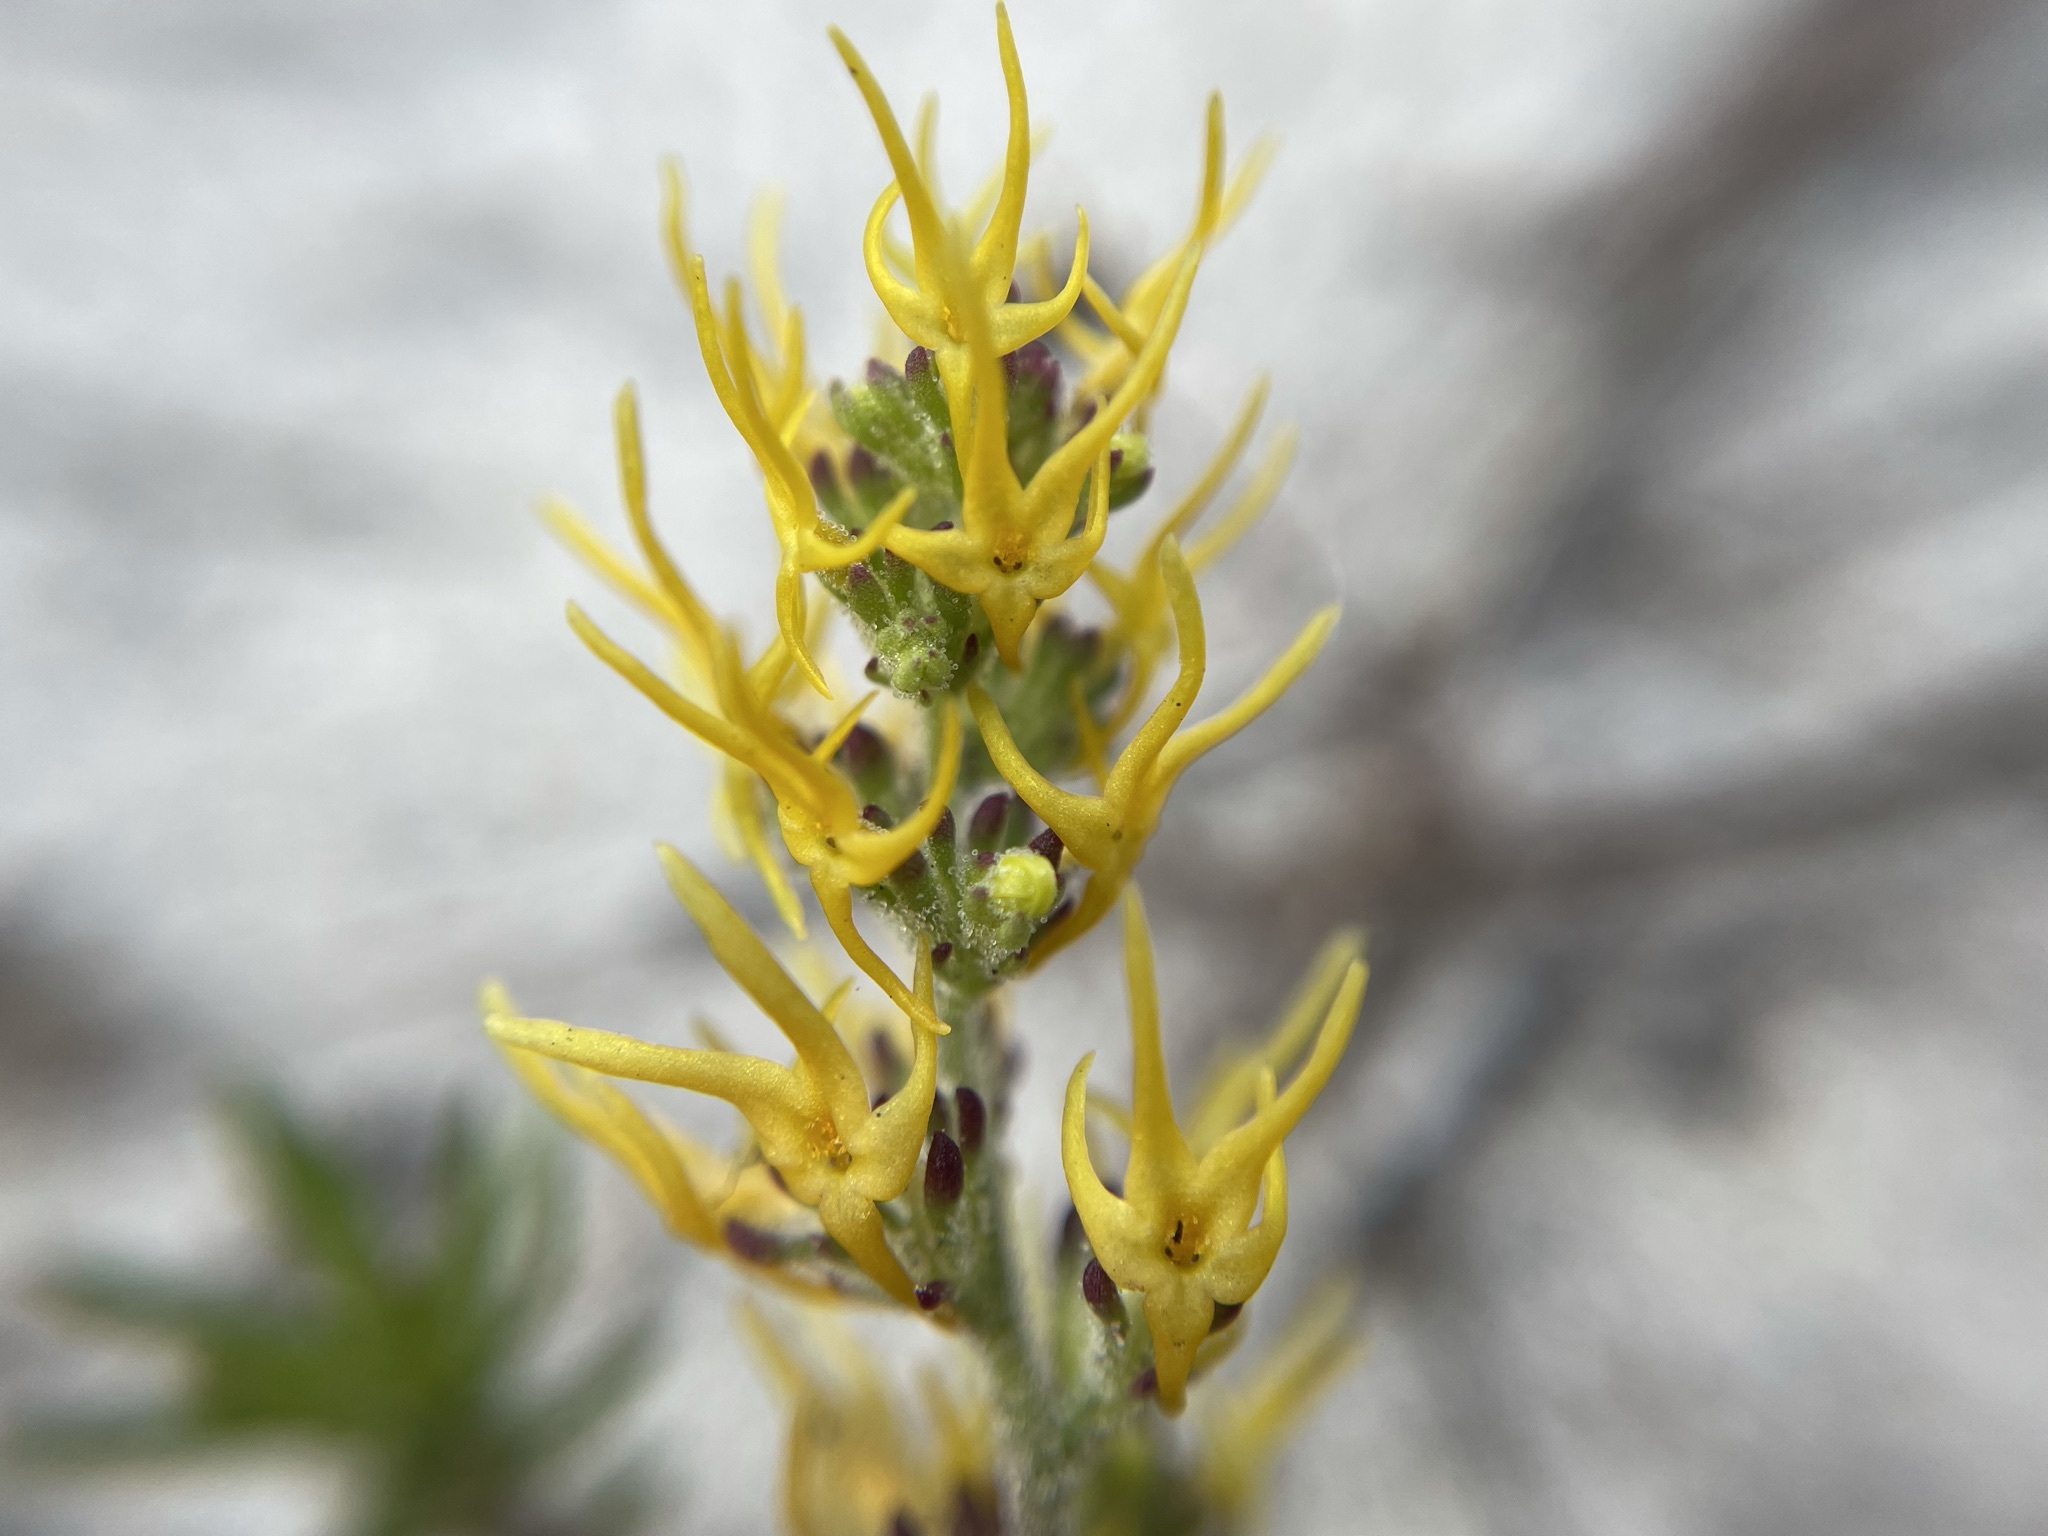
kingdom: Plantae
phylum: Tracheophyta
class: Magnoliopsida
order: Lamiales
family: Scrophulariaceae
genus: Manulea
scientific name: Manulea cheiranthus
